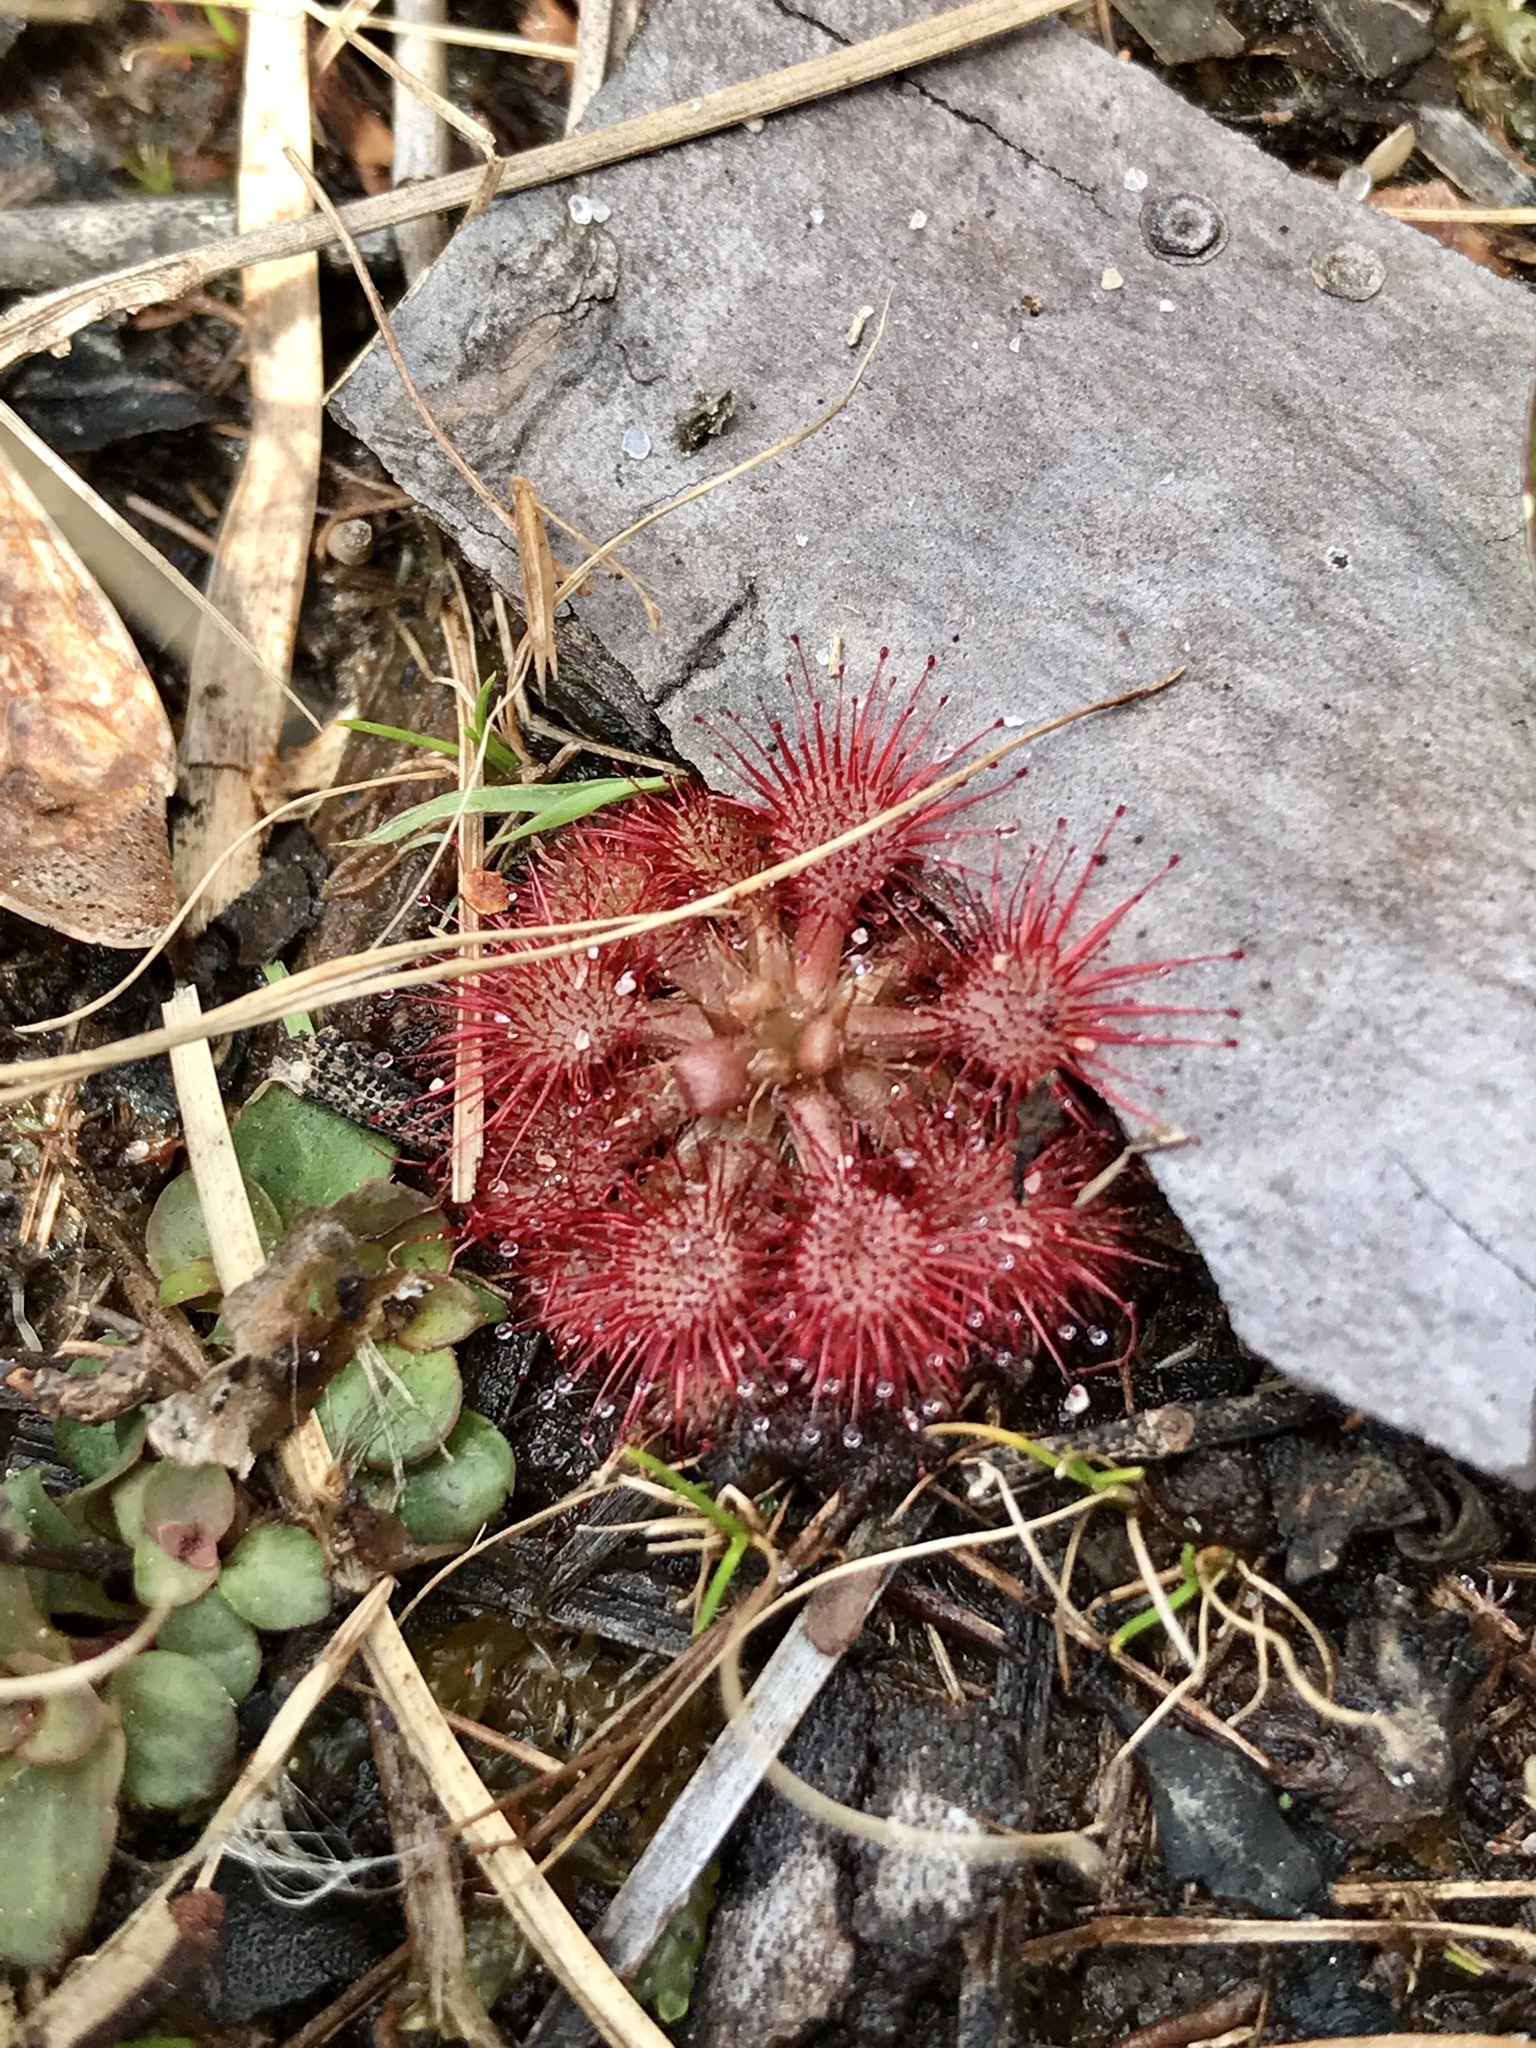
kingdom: Plantae
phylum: Tracheophyta
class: Magnoliopsida
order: Caryophyllales
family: Droseraceae
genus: Drosera
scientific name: Drosera capillaris
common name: Pink sundew
